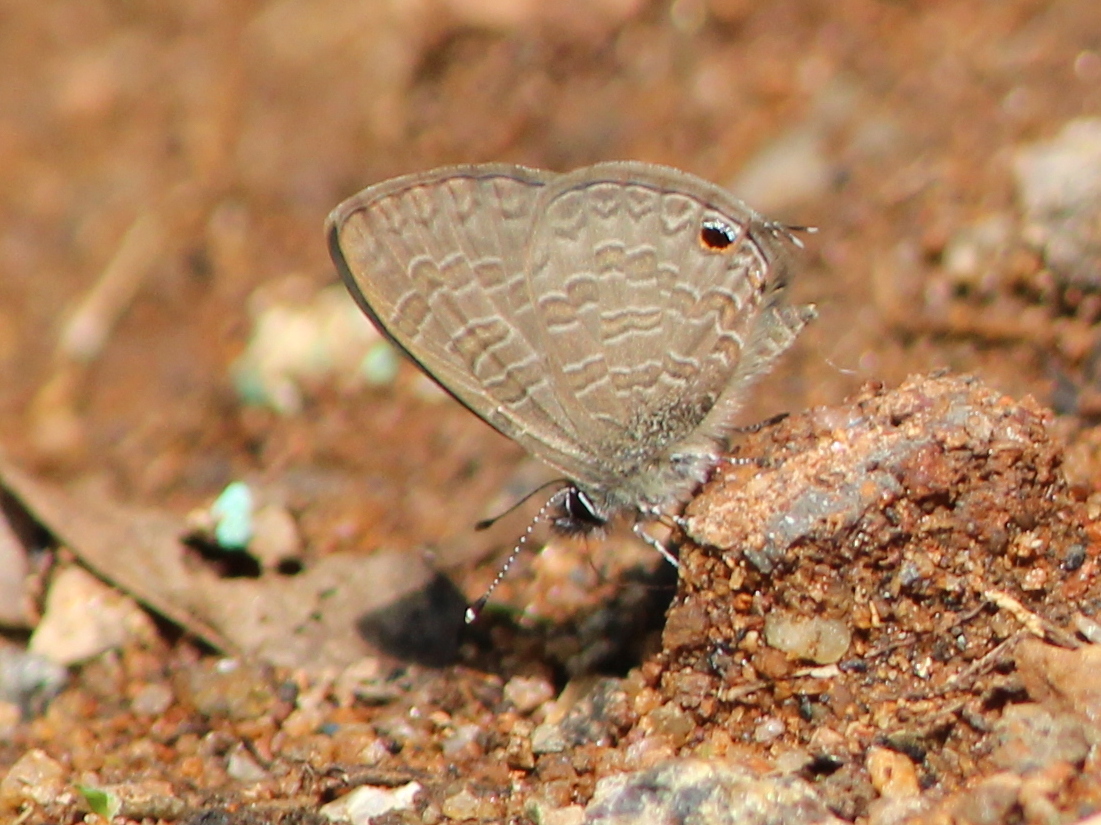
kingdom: Animalia
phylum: Arthropoda
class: Insecta
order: Lepidoptera
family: Lycaenidae
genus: Prosotas
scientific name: Prosotas nora
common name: Common line blue
